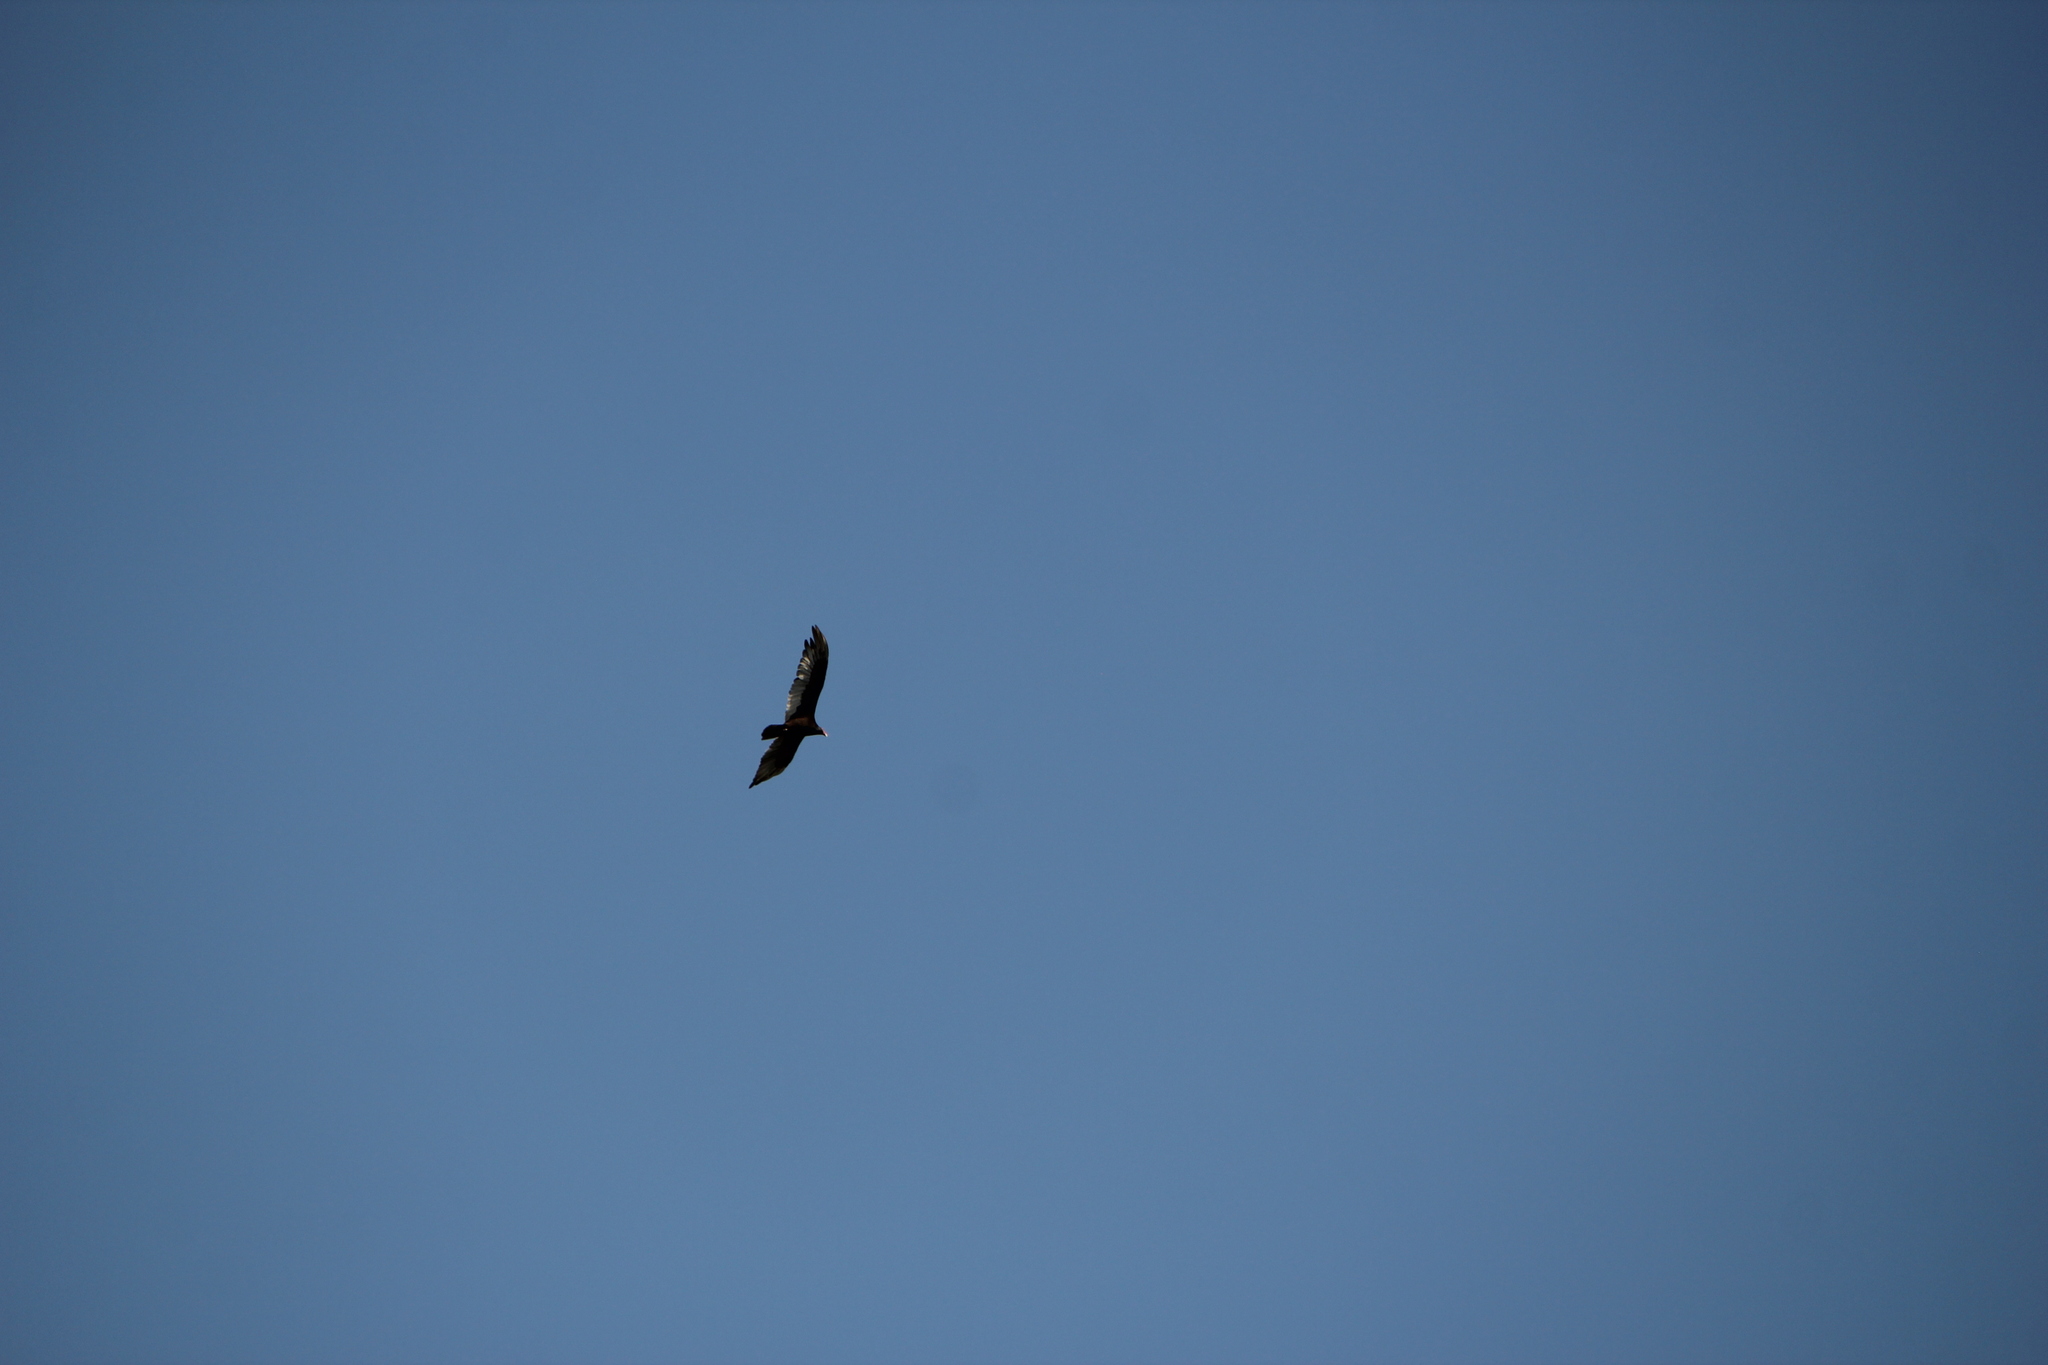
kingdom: Animalia
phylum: Chordata
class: Aves
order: Accipitriformes
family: Cathartidae
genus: Cathartes
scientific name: Cathartes aura
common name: Turkey vulture
